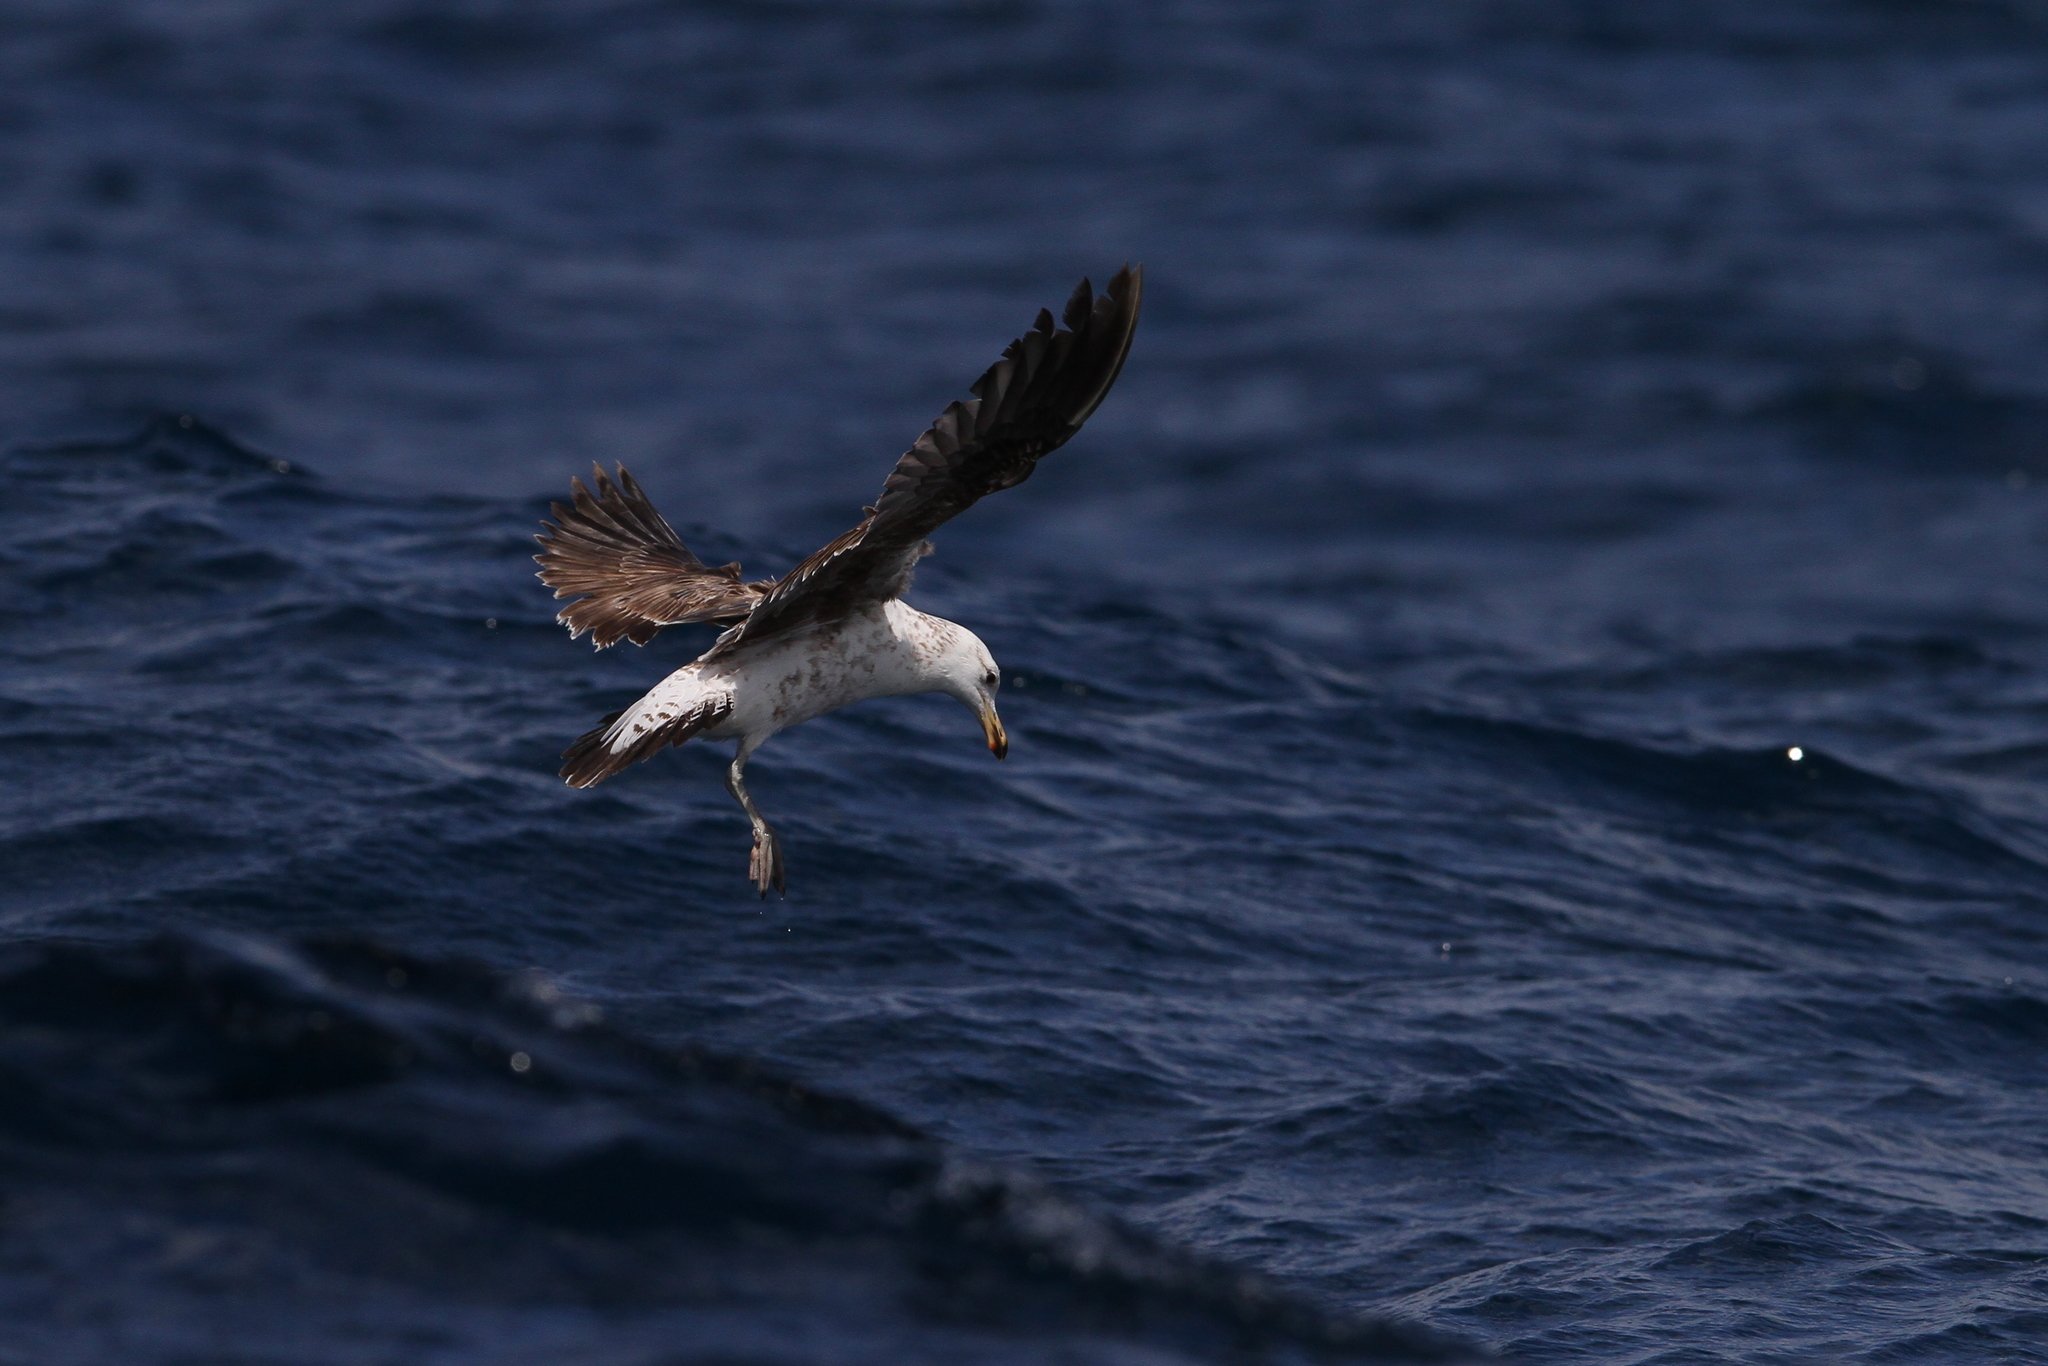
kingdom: Animalia
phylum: Chordata
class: Aves
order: Charadriiformes
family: Laridae
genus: Larus
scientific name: Larus dominicanus
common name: Kelp gull
